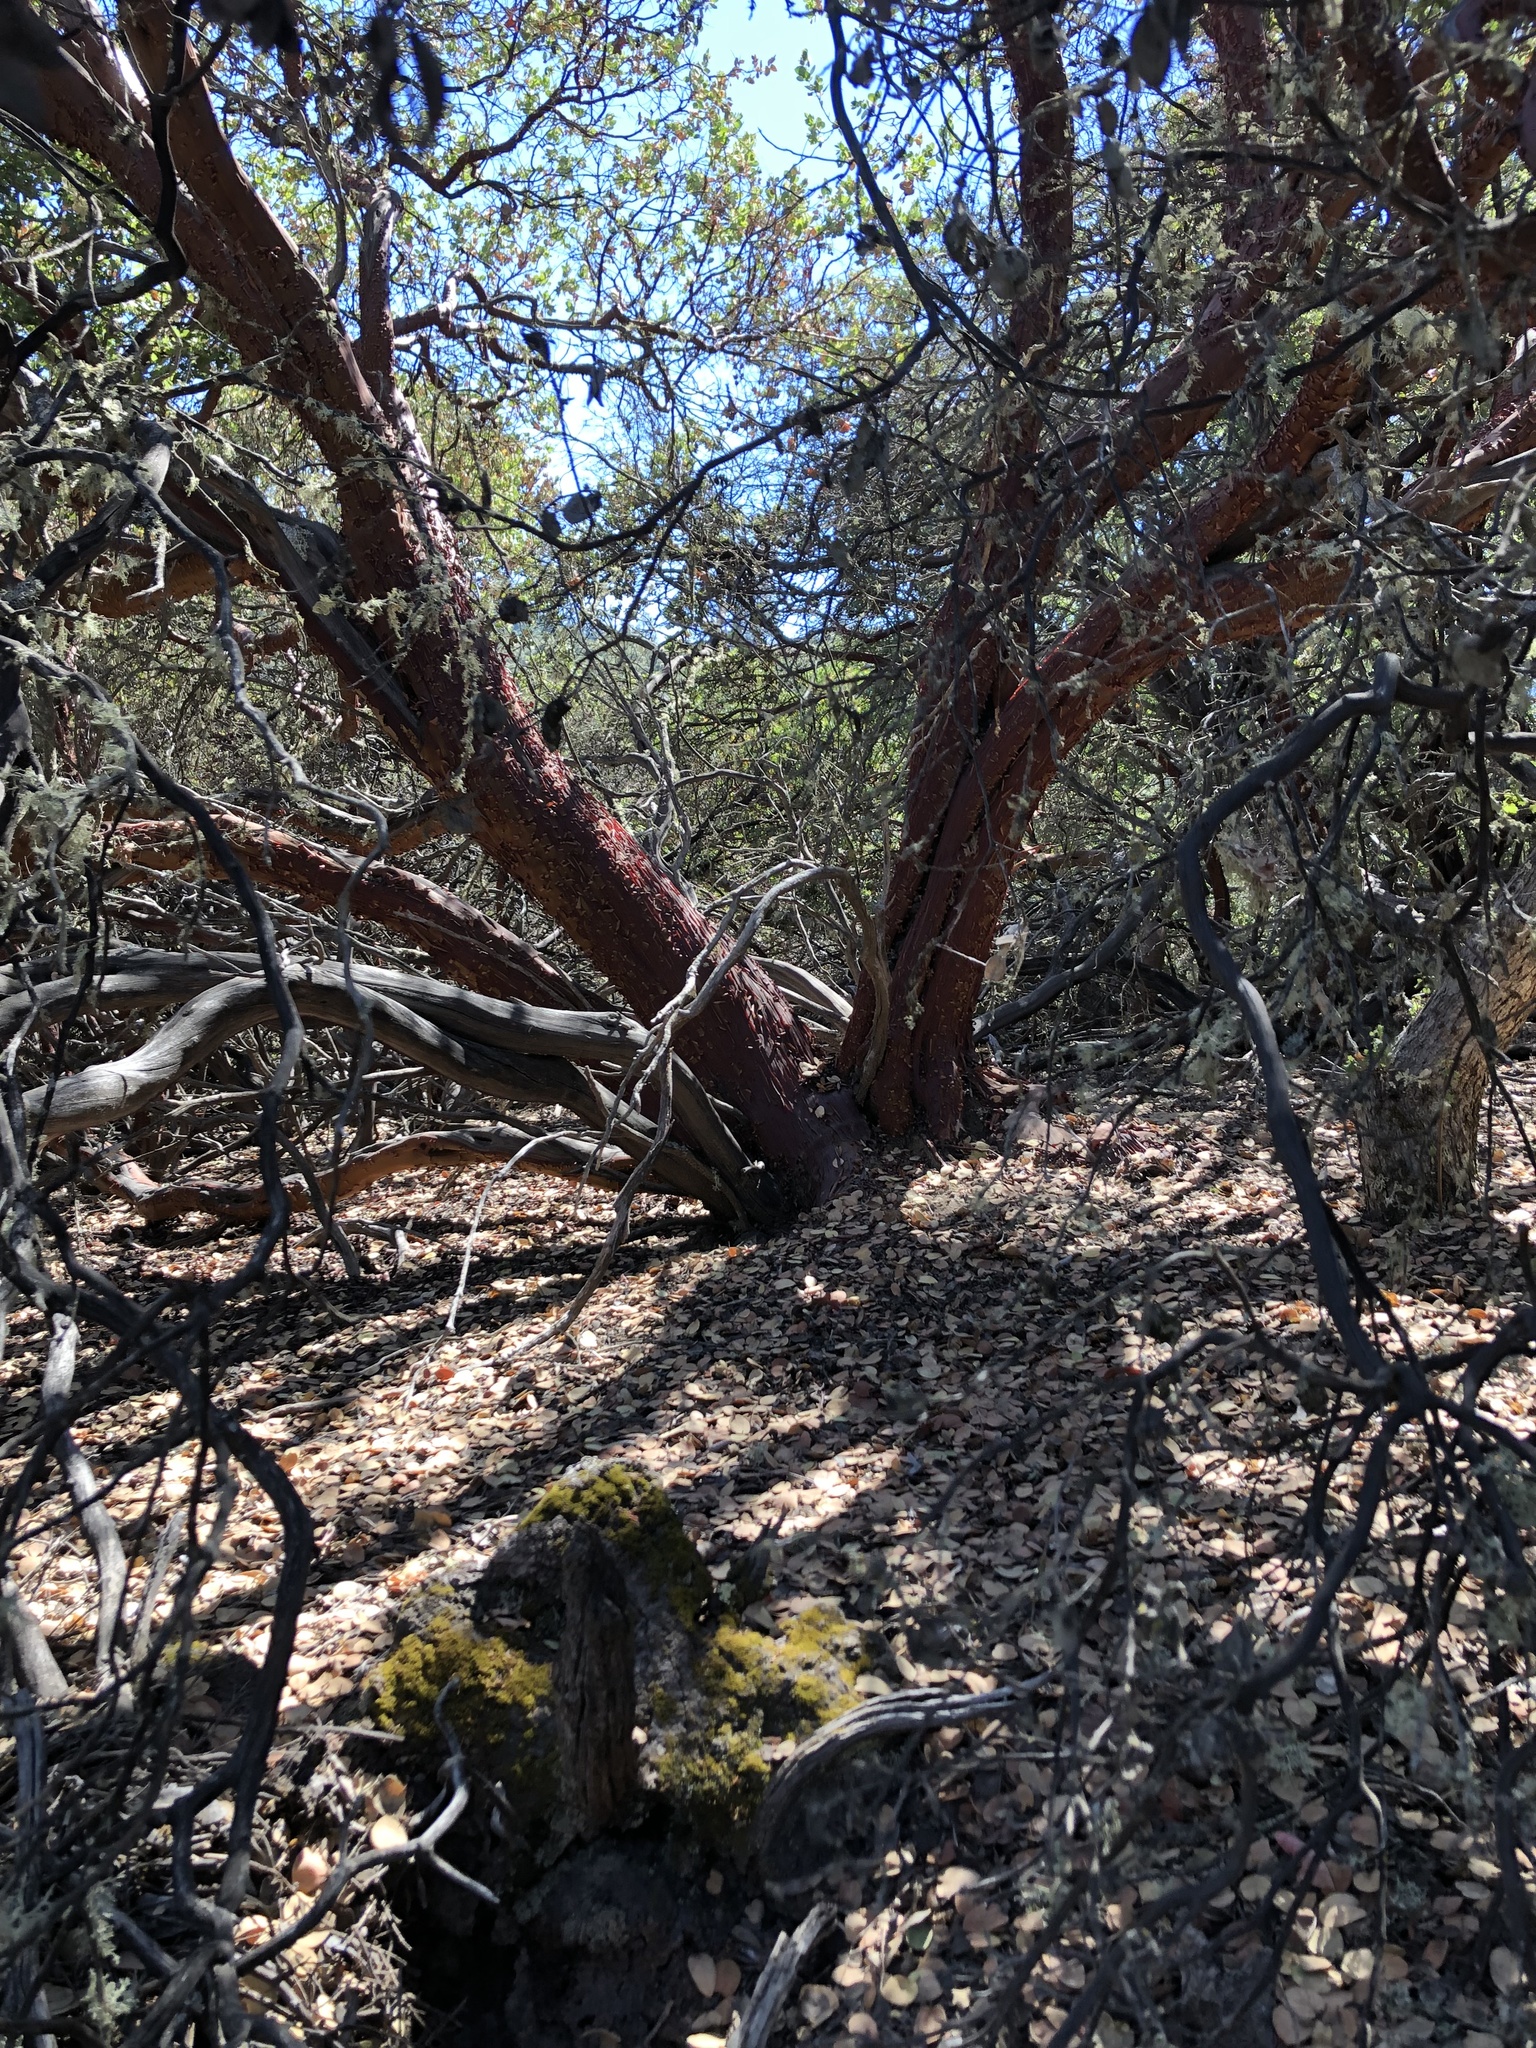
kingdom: Plantae
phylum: Tracheophyta
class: Magnoliopsida
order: Ericales
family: Ericaceae
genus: Arctostaphylos
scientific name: Arctostaphylos glauca
